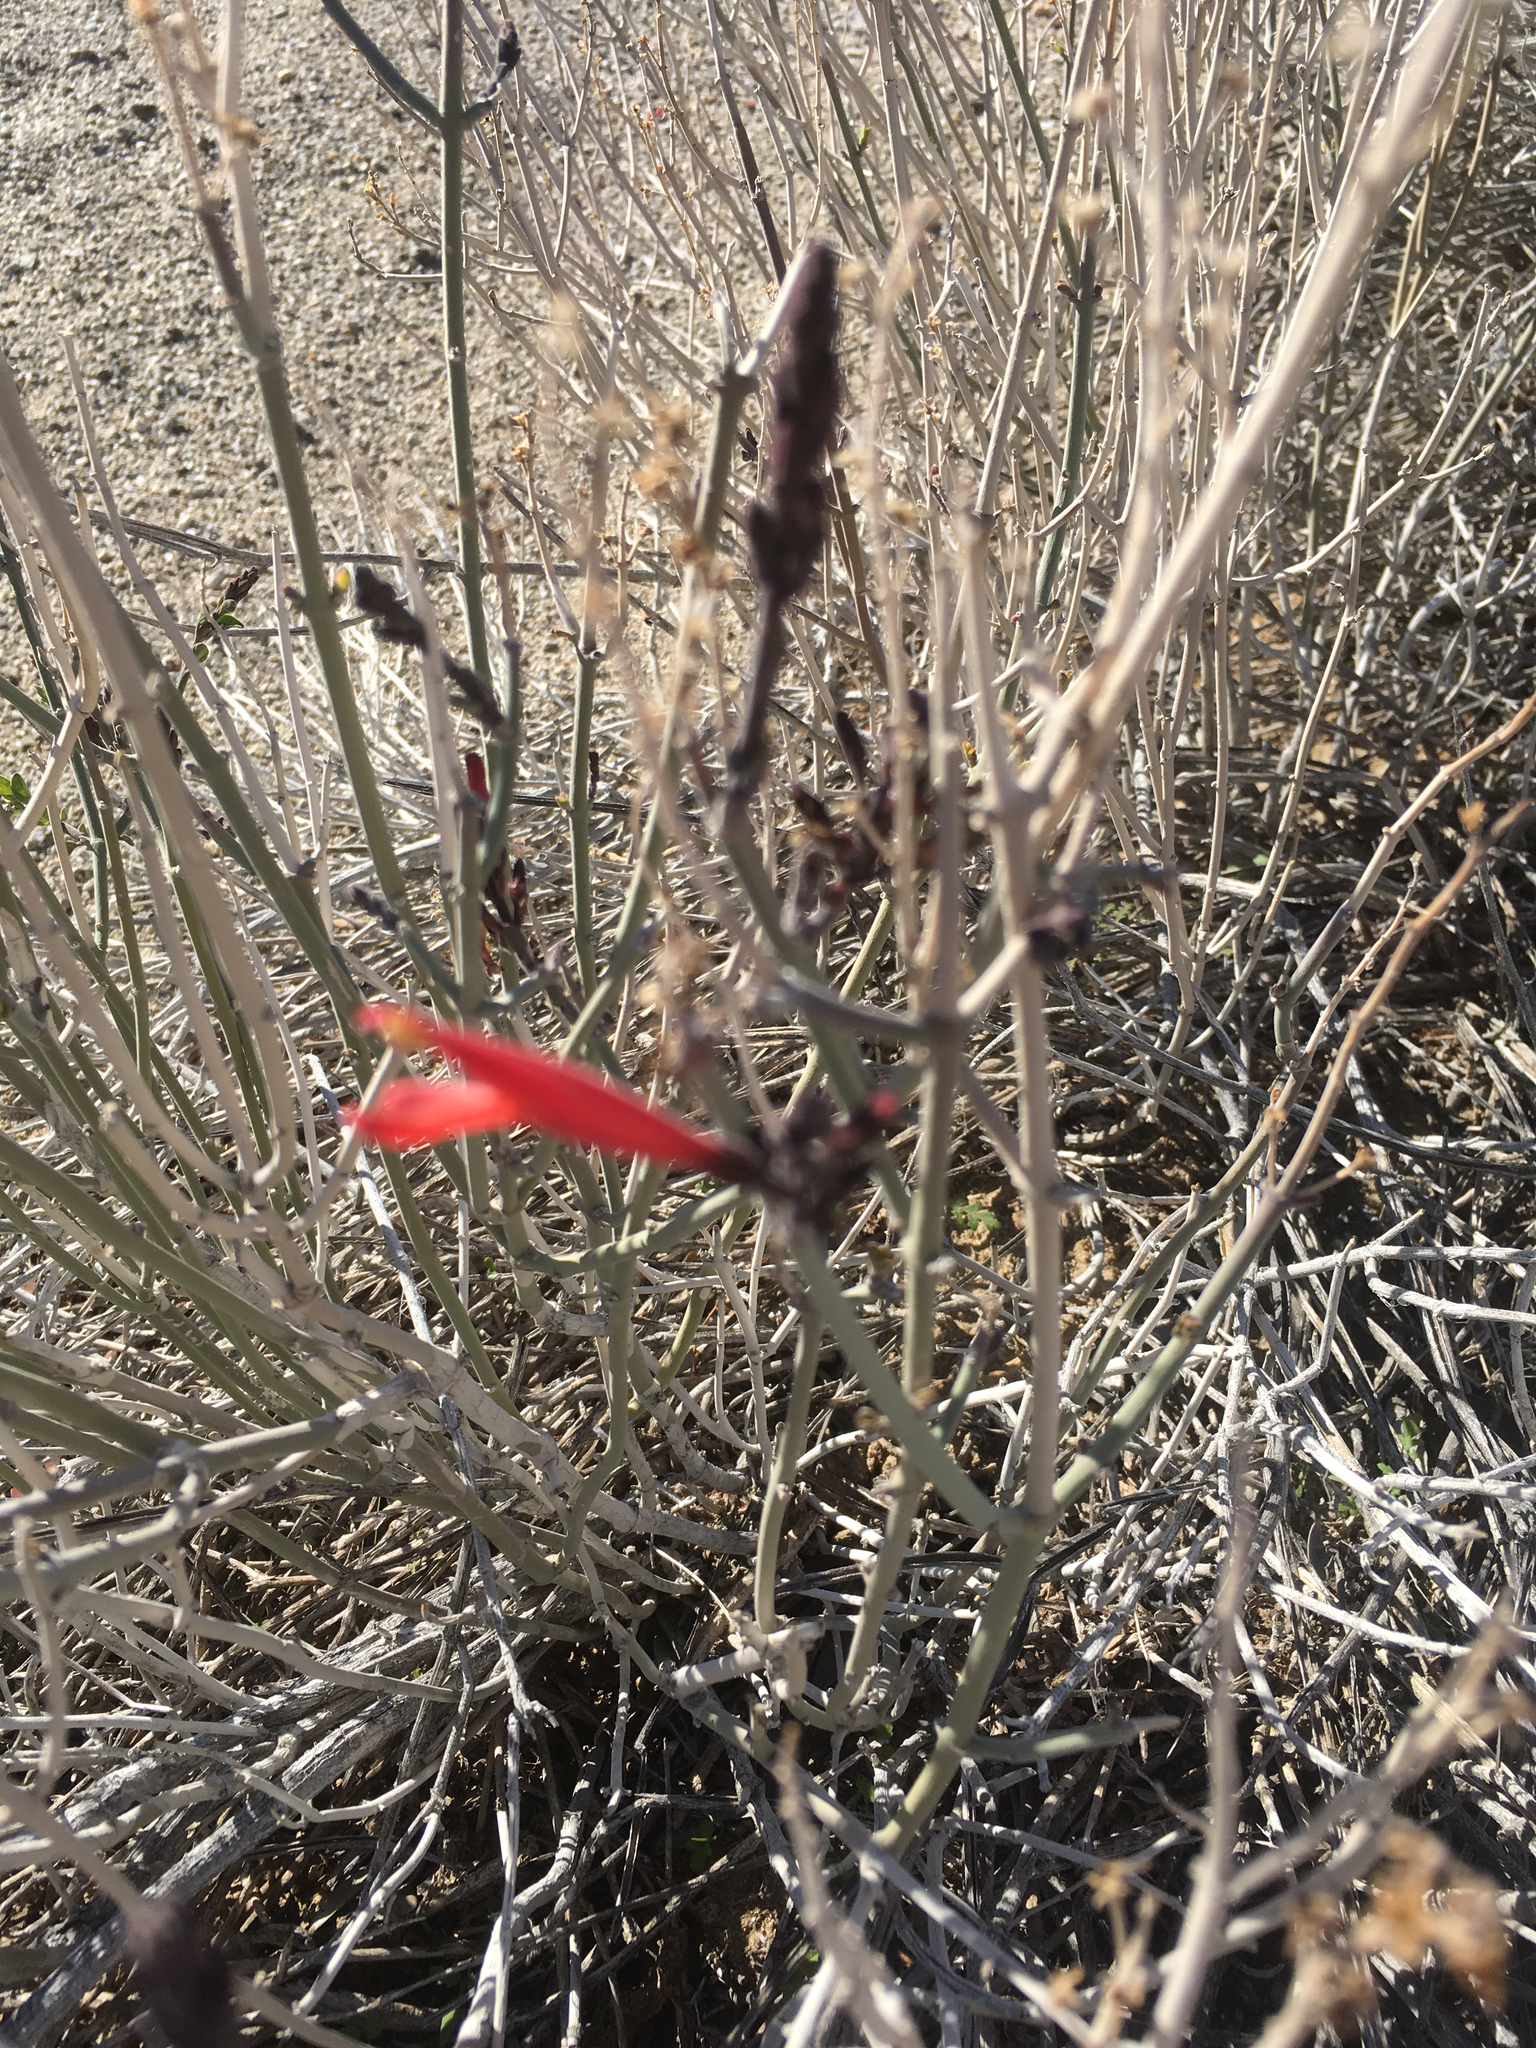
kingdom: Plantae
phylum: Tracheophyta
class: Magnoliopsida
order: Lamiales
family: Acanthaceae
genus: Justicia
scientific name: Justicia californica
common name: Chuparosa-honeysuckle
